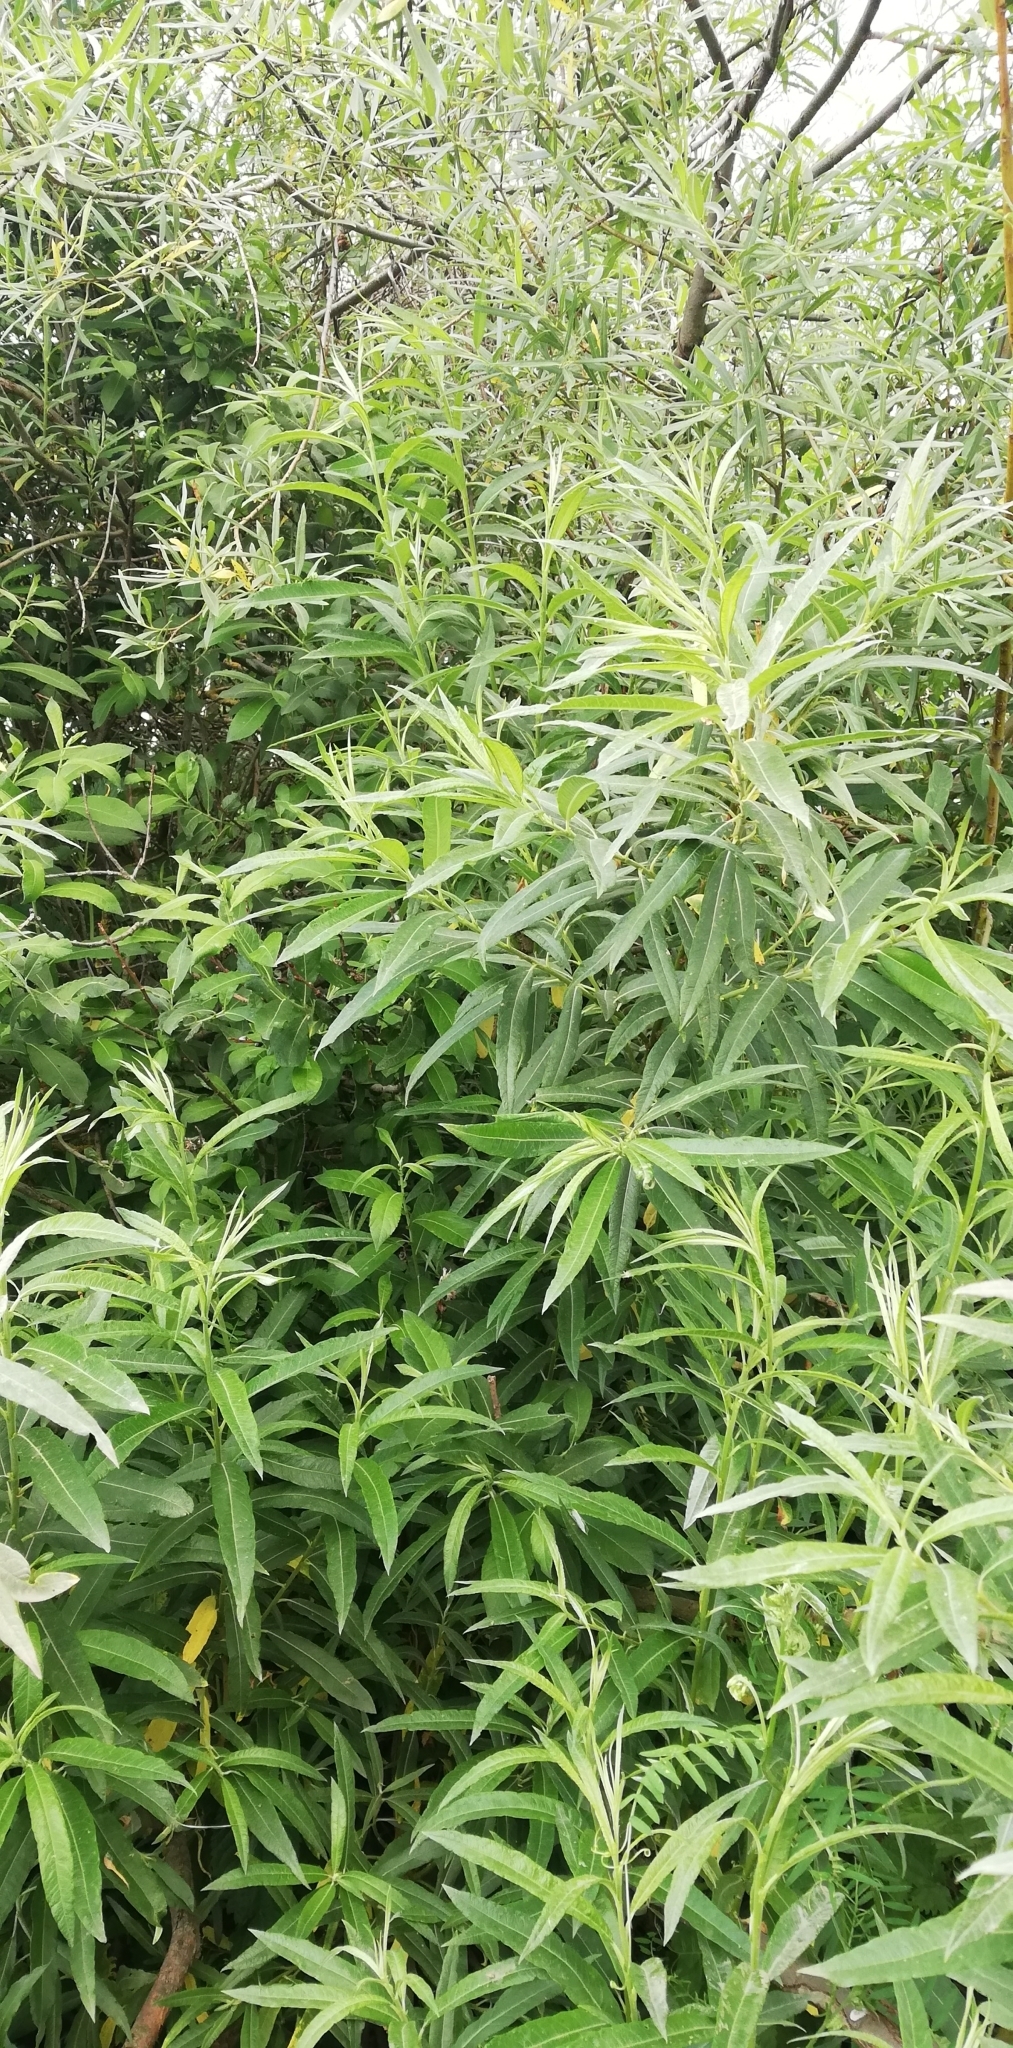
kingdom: Plantae
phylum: Tracheophyta
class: Magnoliopsida
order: Malpighiales
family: Salicaceae
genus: Salix
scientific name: Salix viminalis
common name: Osier
